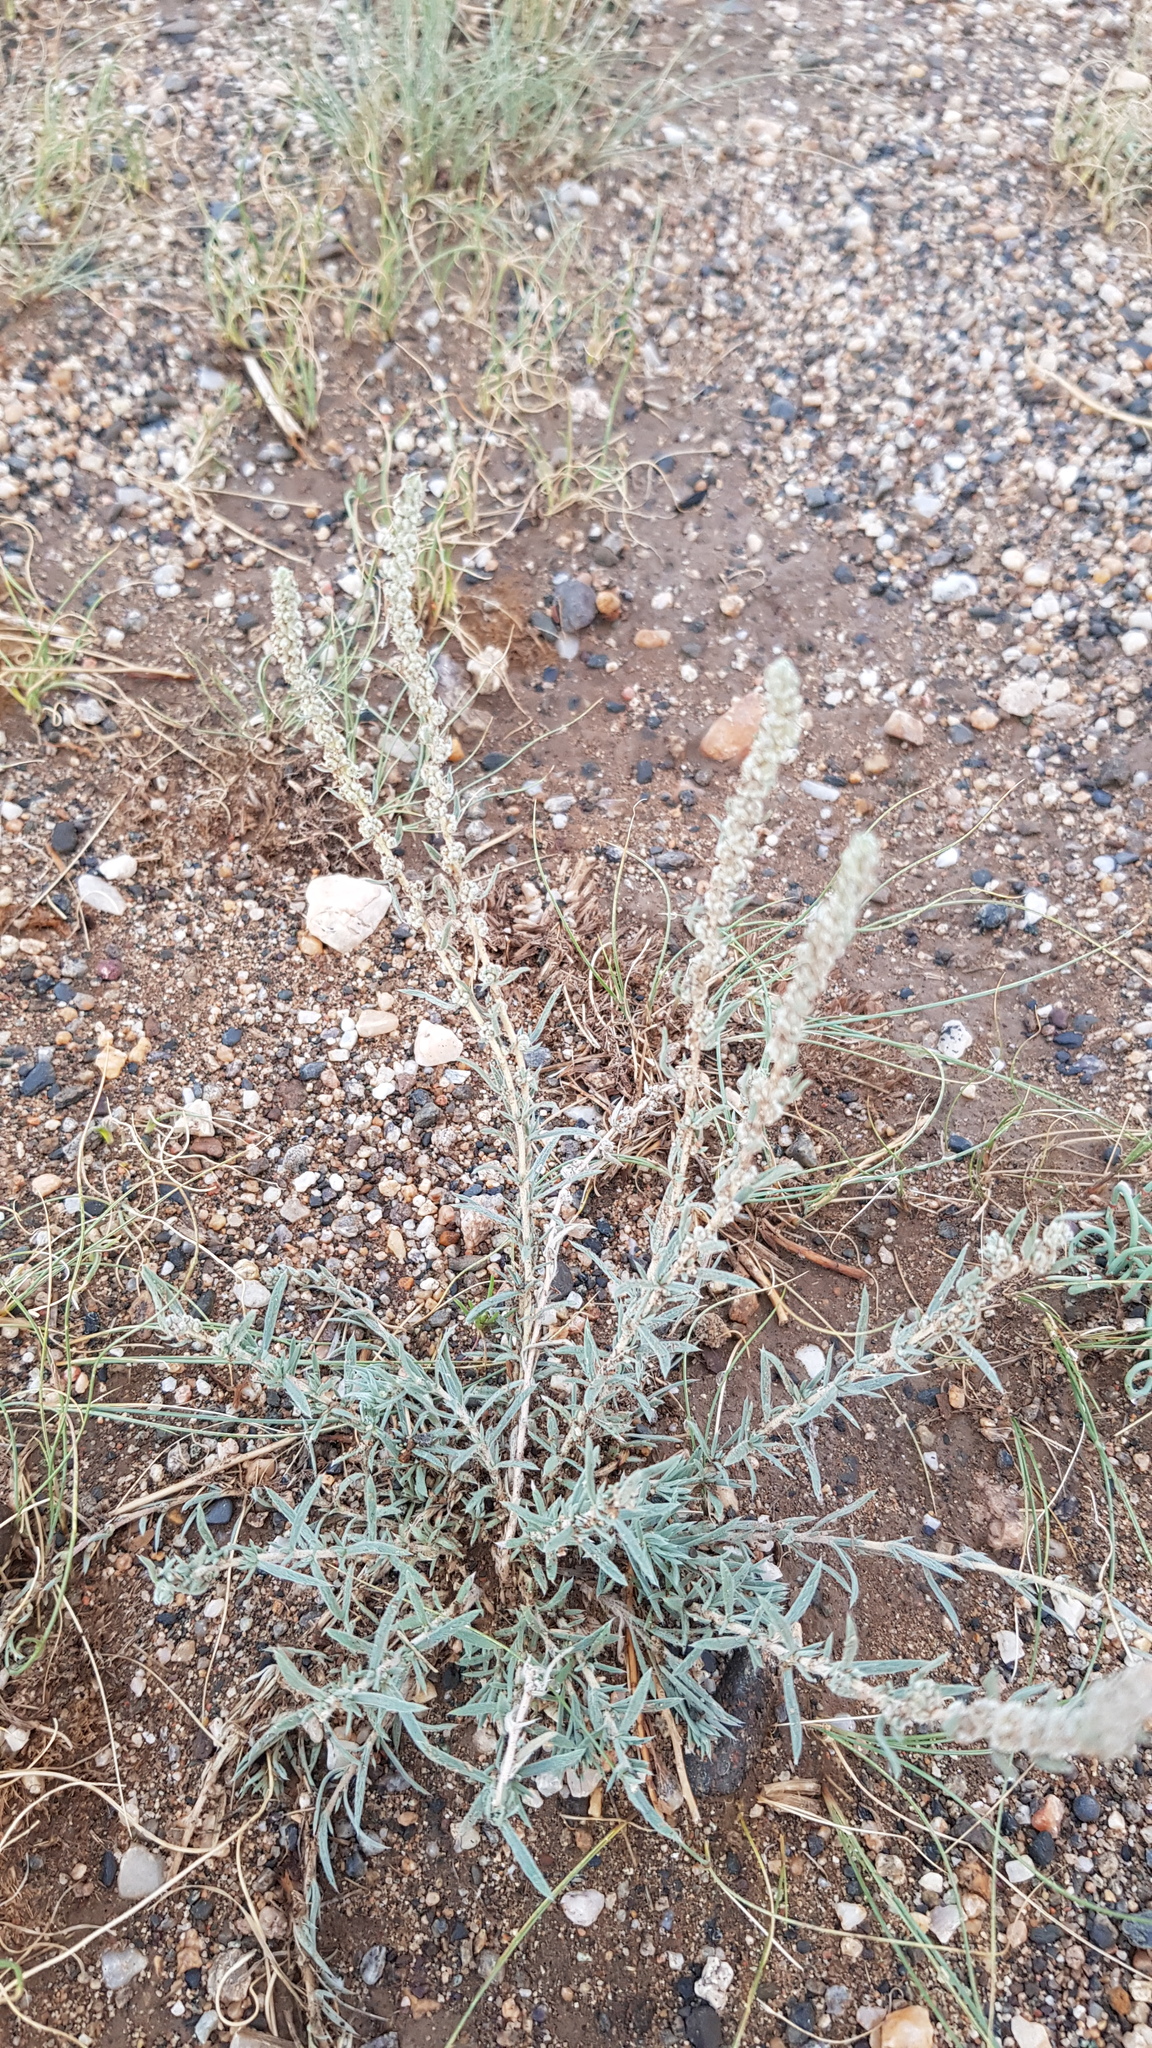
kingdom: Plantae
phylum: Tracheophyta
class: Magnoliopsida
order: Caryophyllales
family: Amaranthaceae
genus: Bassia
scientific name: Bassia prostrata
